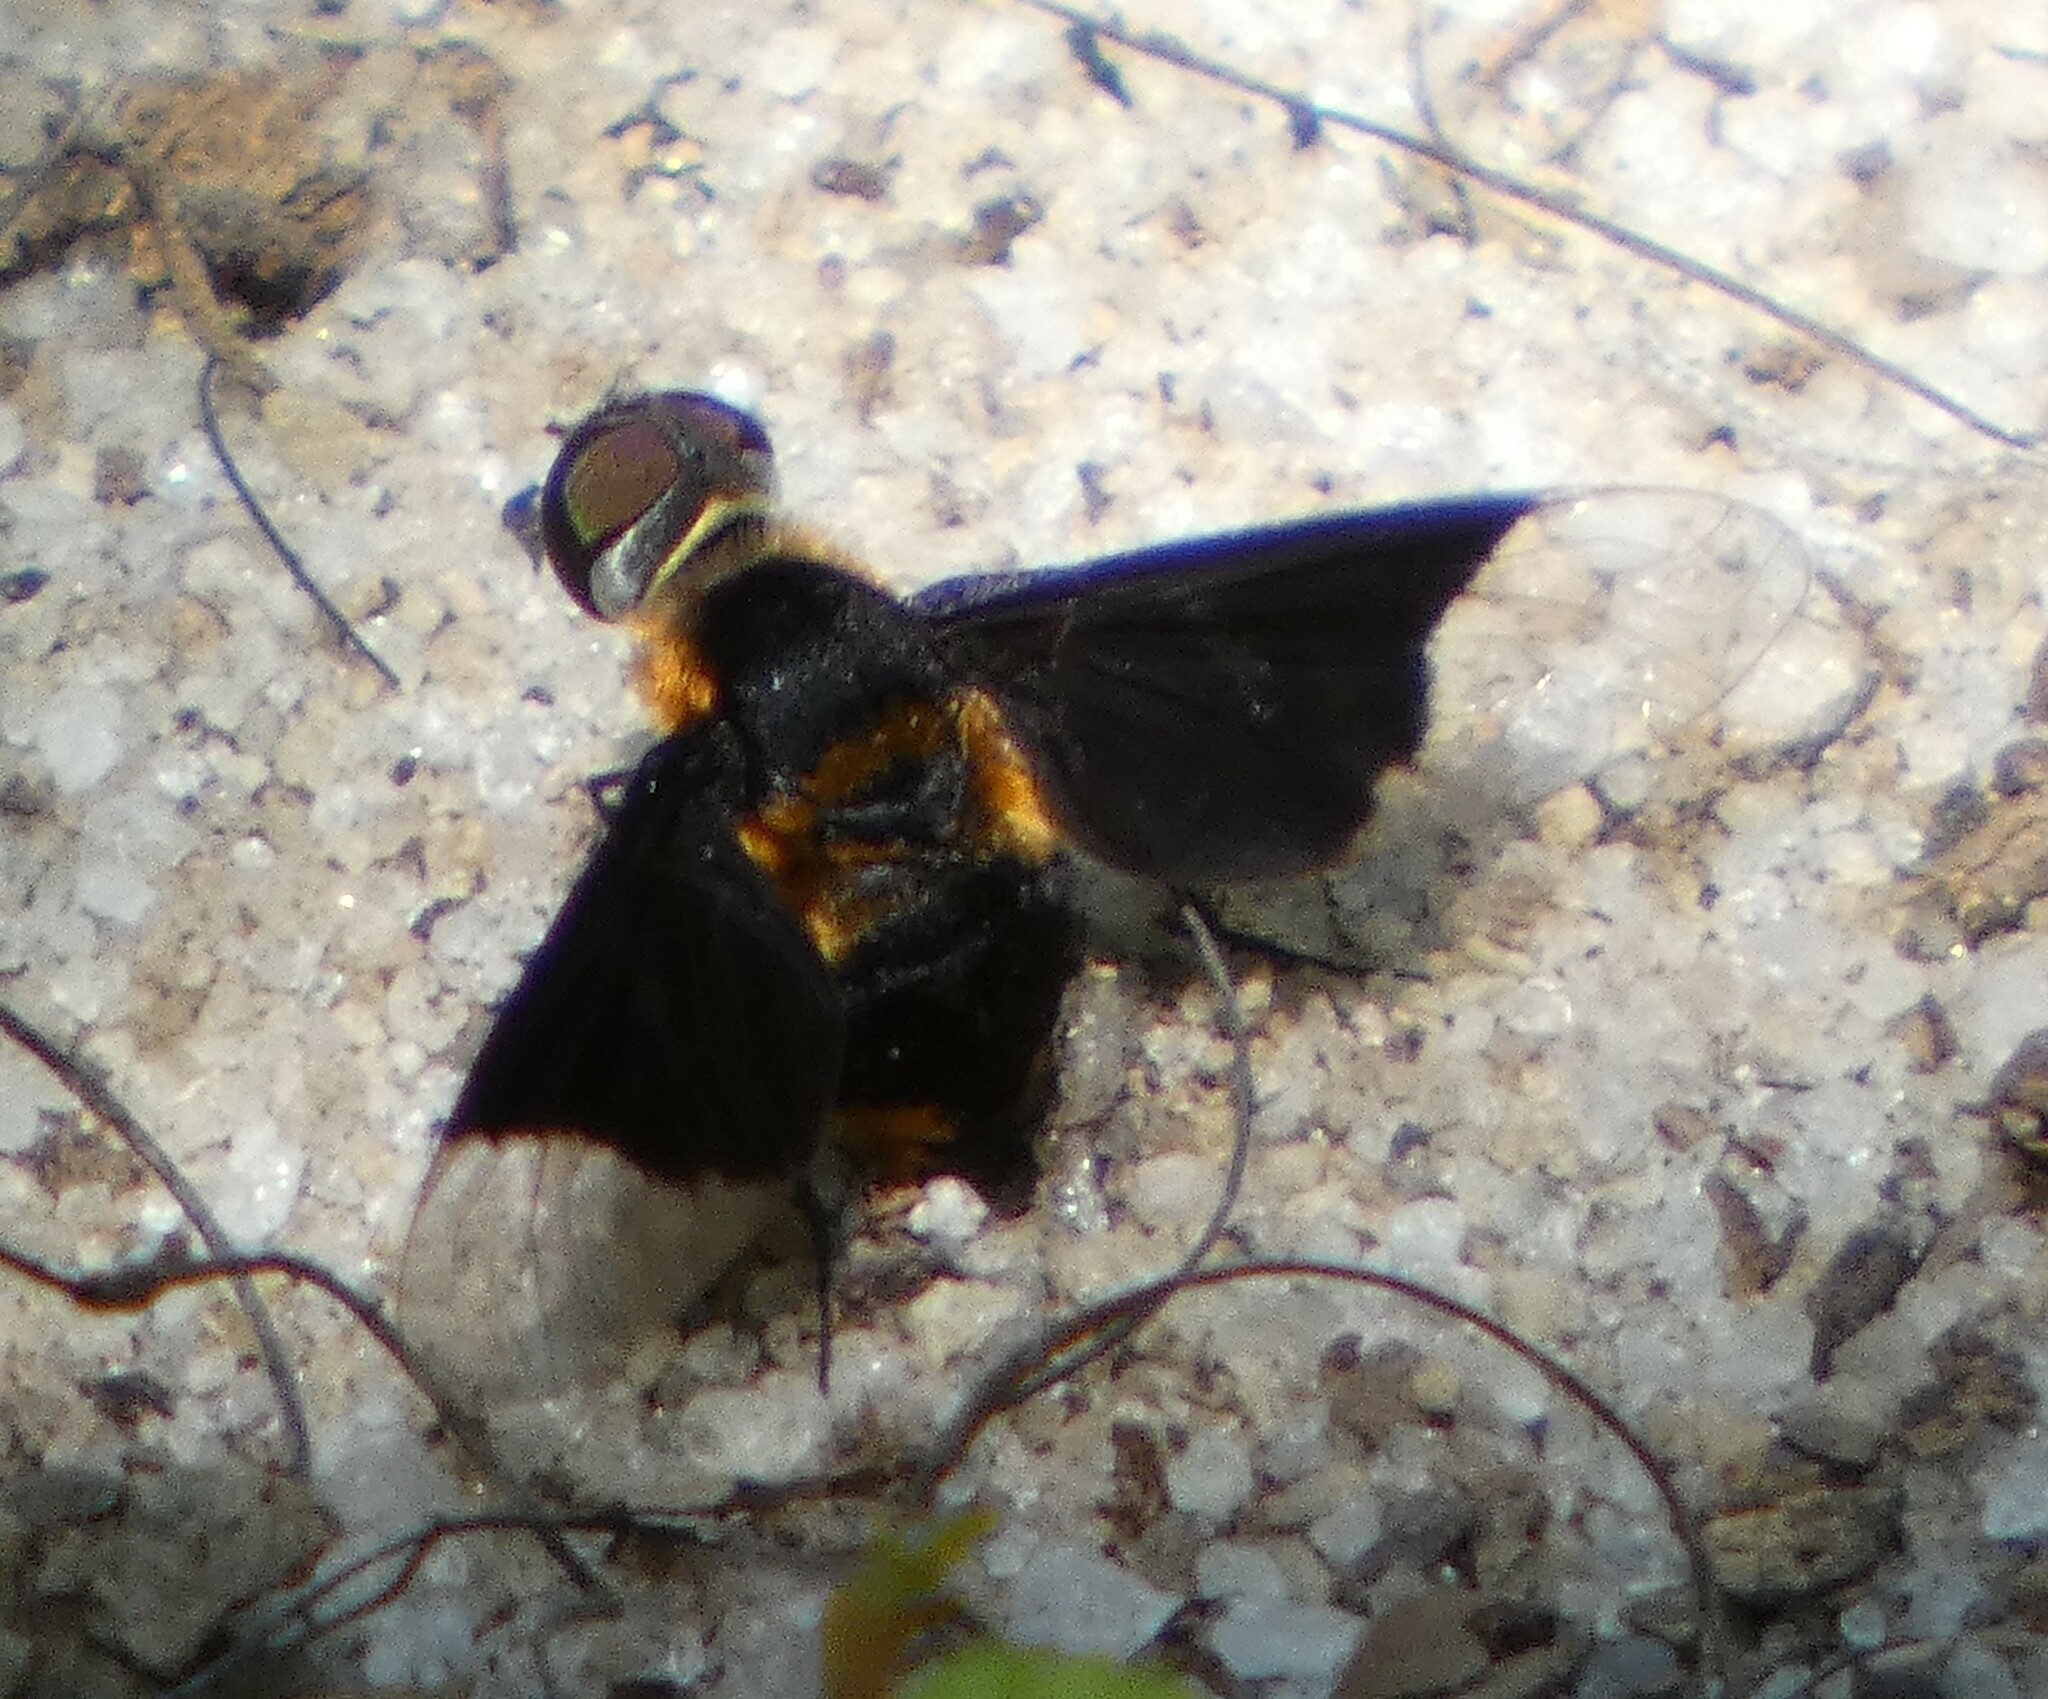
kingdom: Animalia
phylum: Arthropoda
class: Insecta
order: Diptera
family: Bombyliidae
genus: Ins
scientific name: Ins celeris
